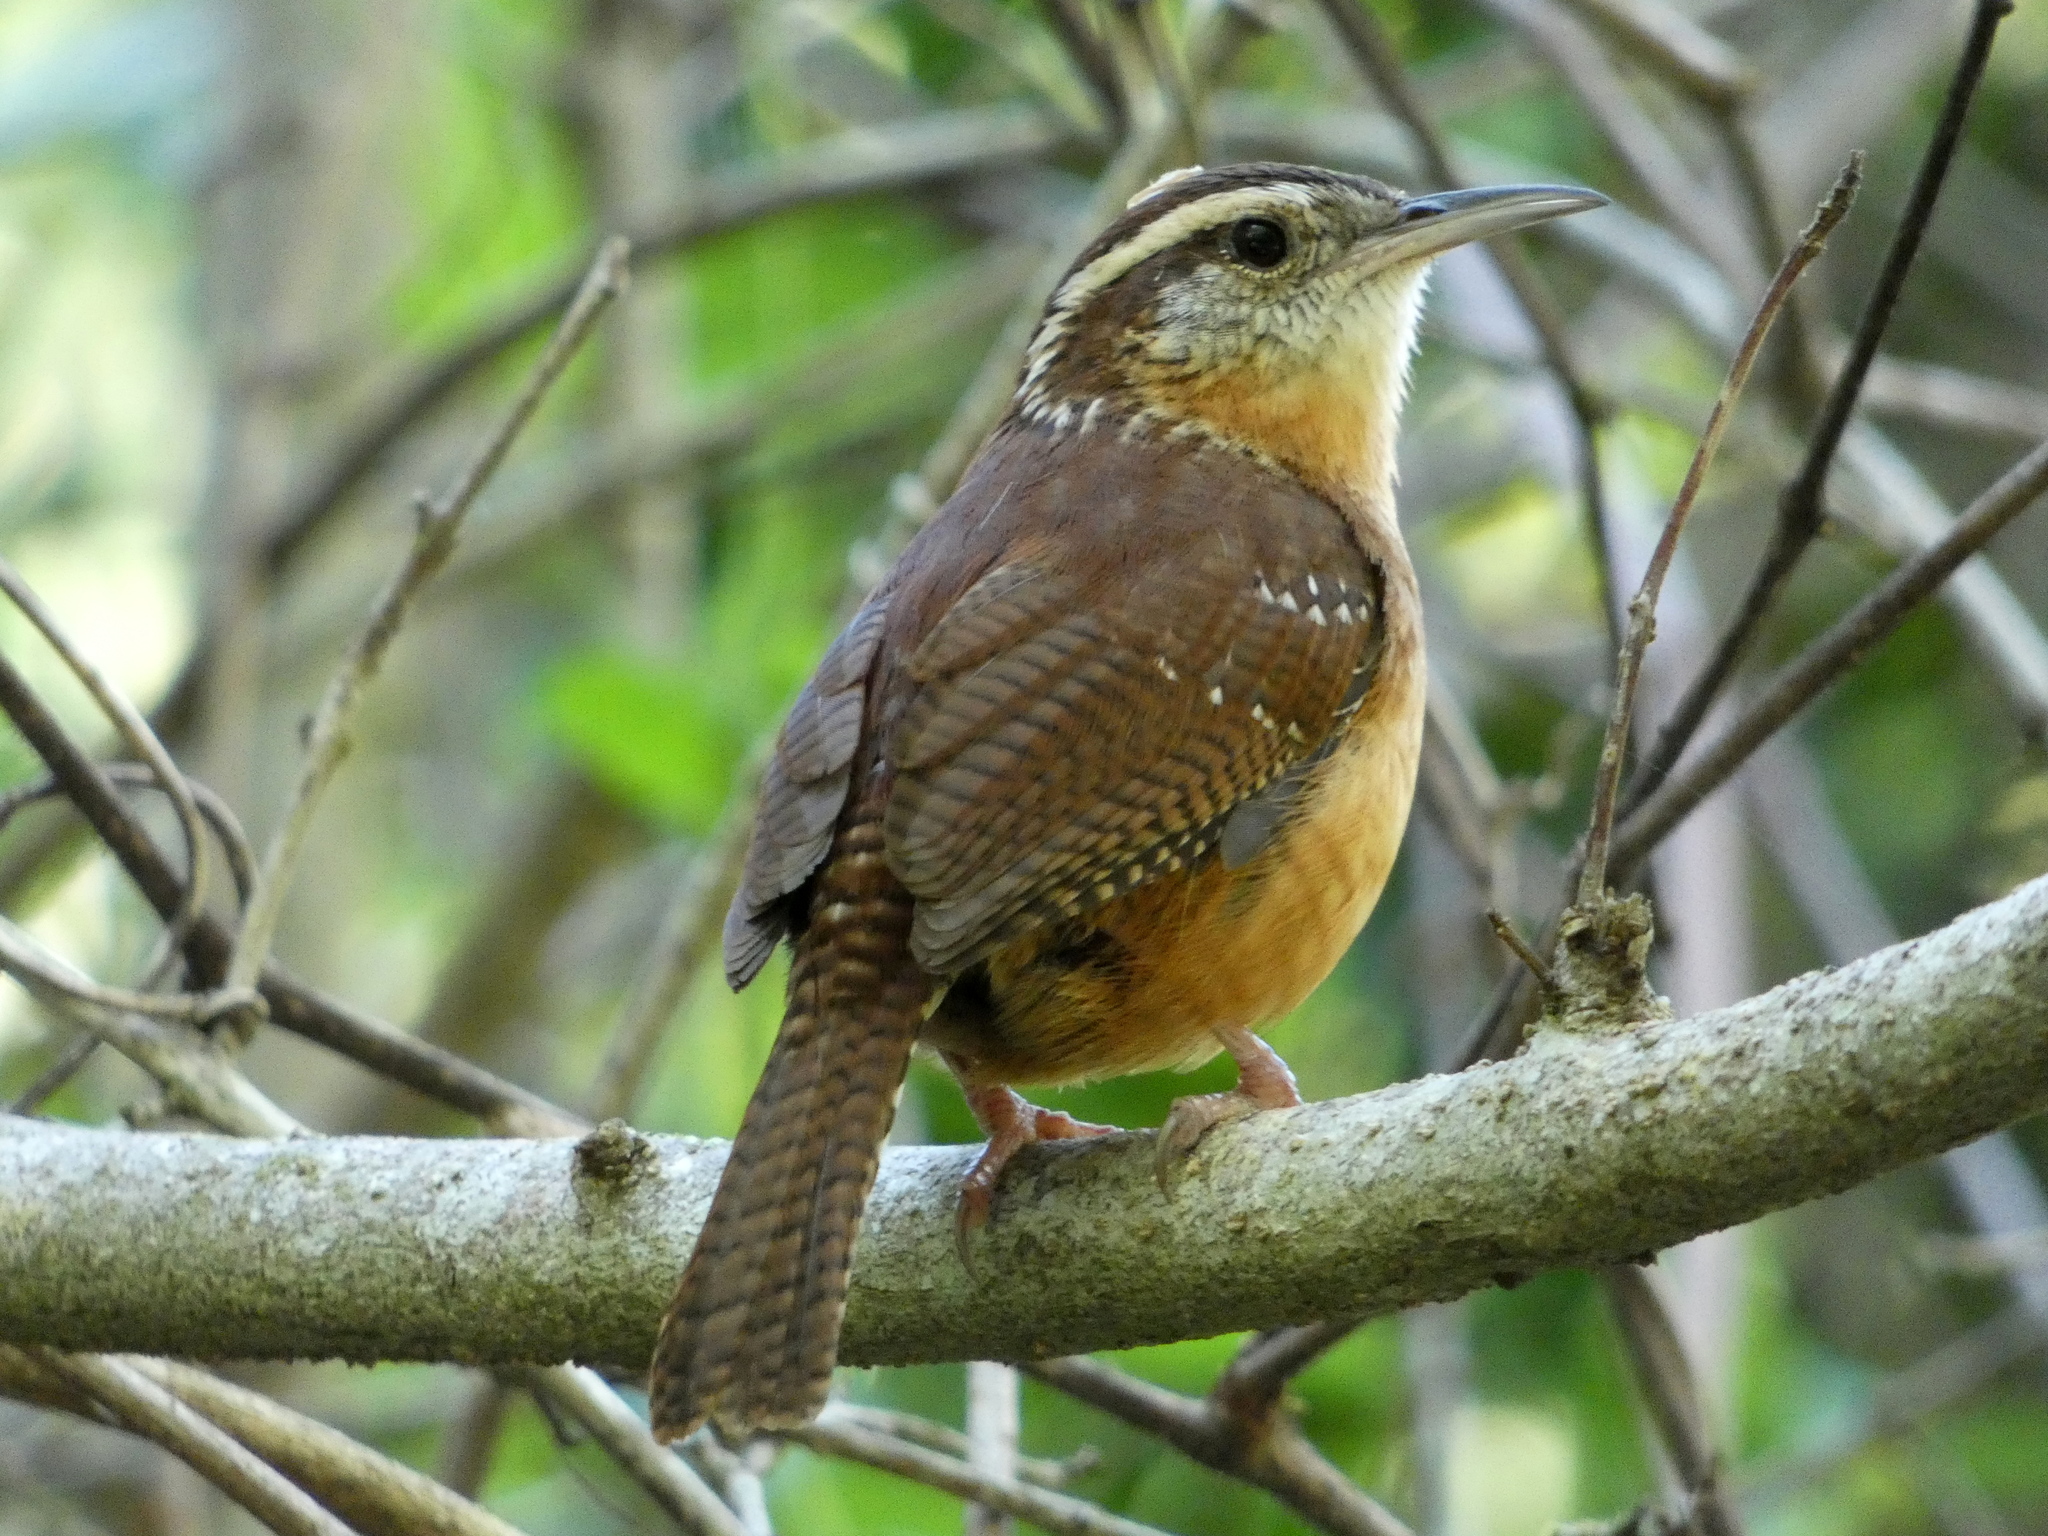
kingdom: Animalia
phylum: Chordata
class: Aves
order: Passeriformes
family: Troglodytidae
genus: Thryothorus
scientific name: Thryothorus ludovicianus
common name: Carolina wren
